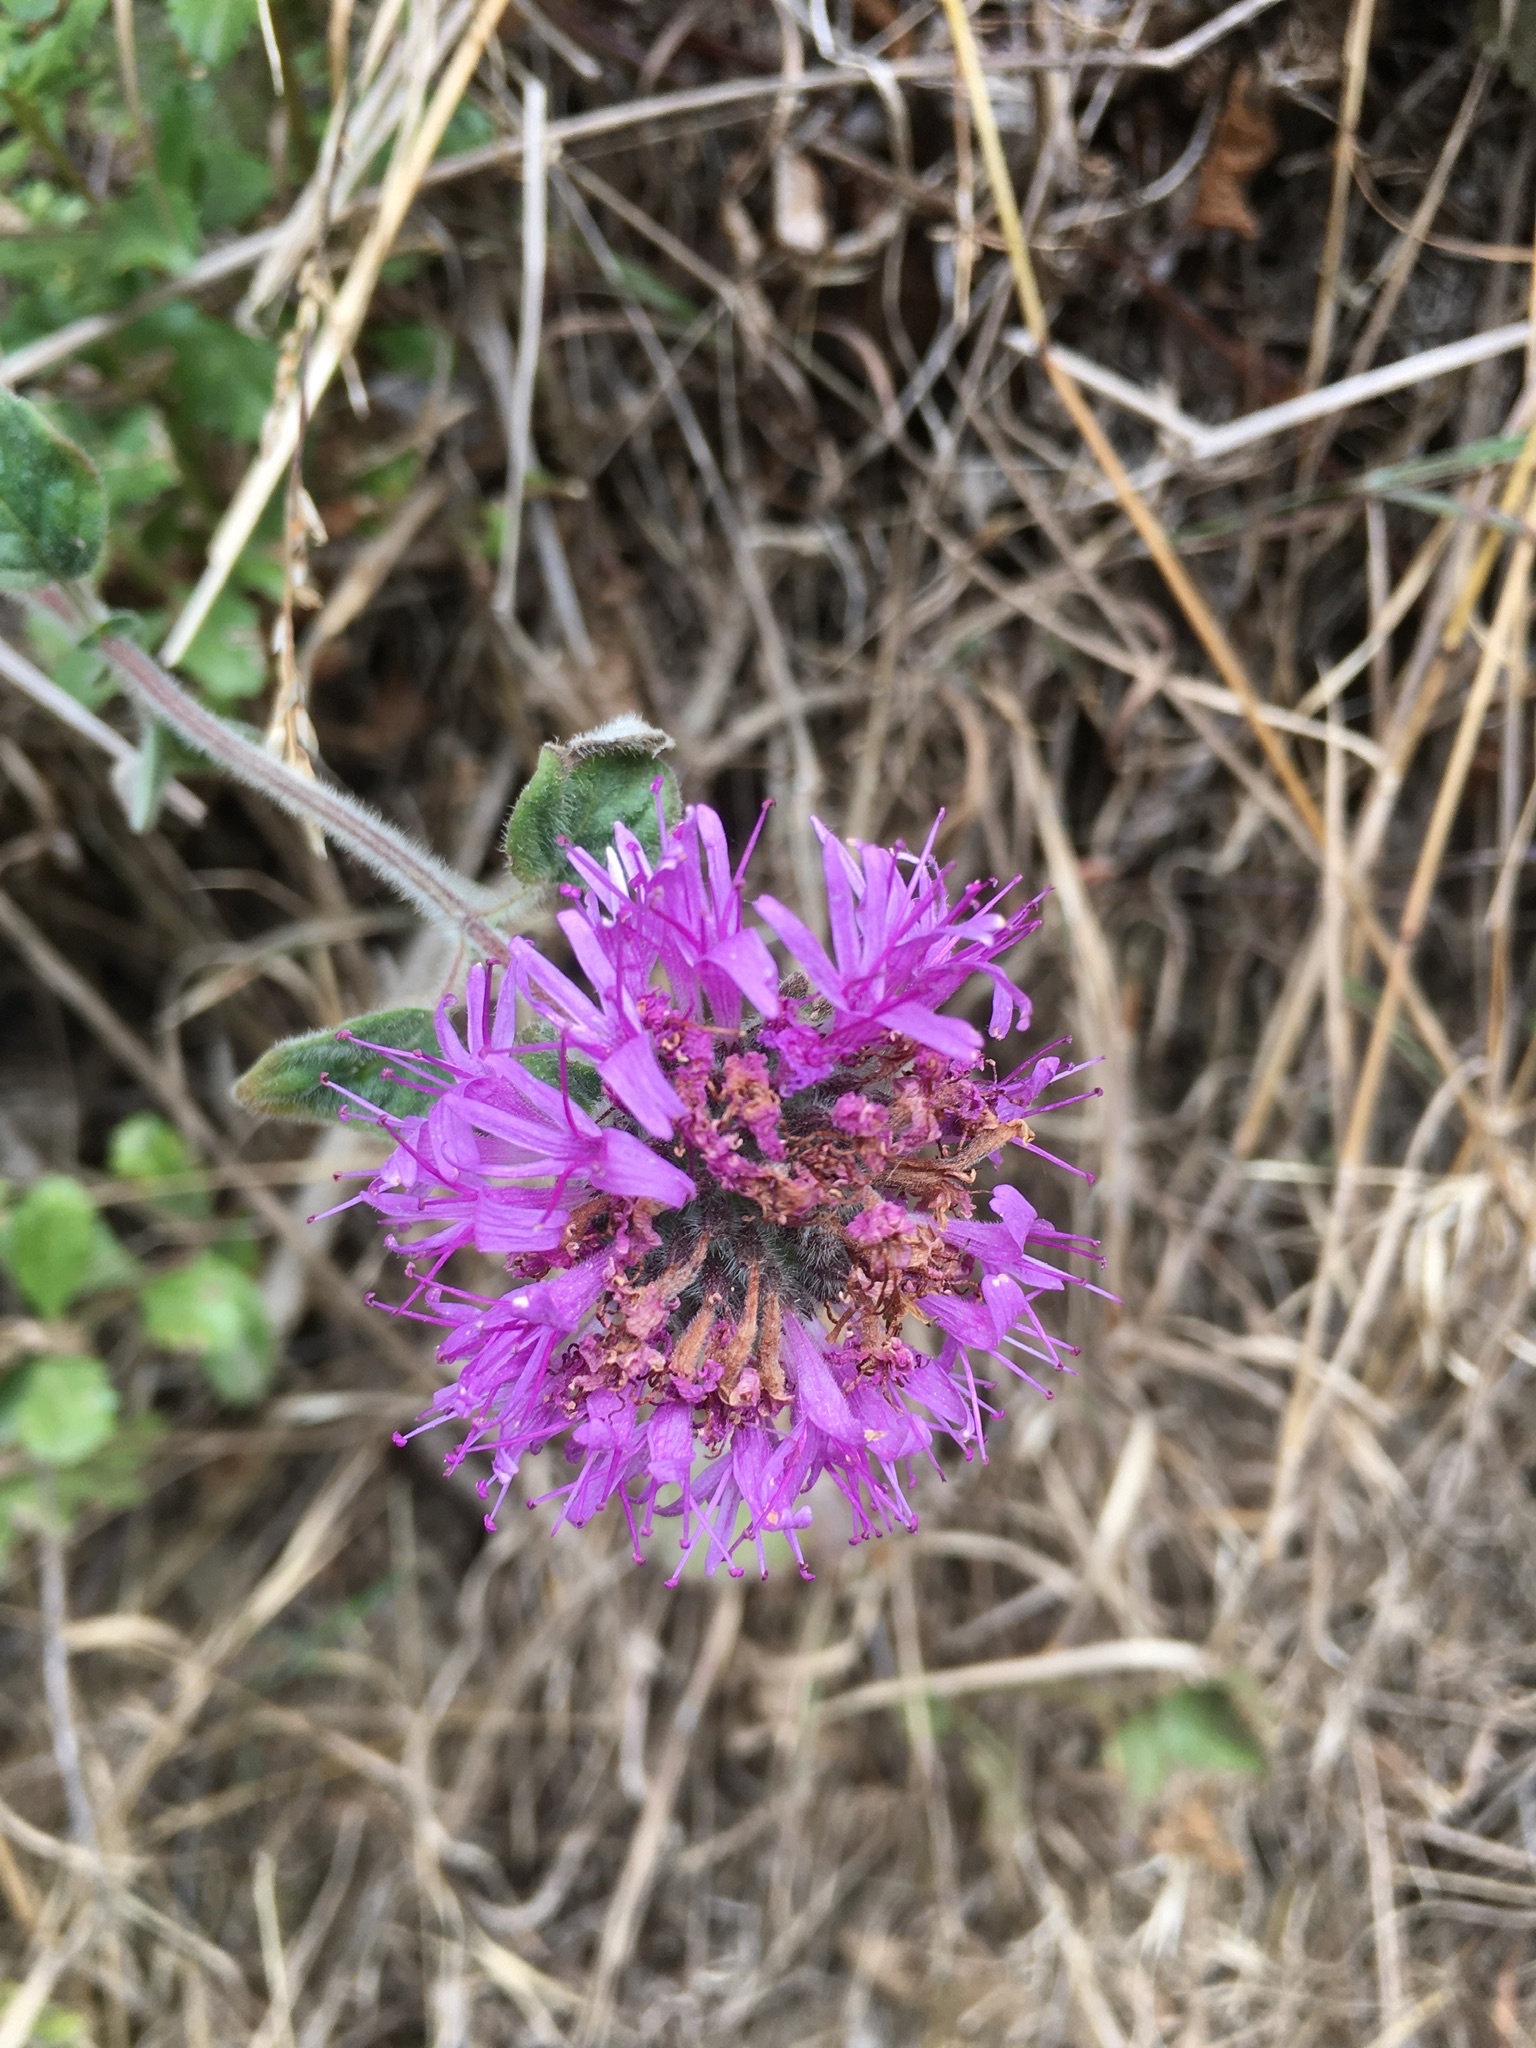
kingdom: Plantae
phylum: Tracheophyta
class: Magnoliopsida
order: Lamiales
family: Lamiaceae
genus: Monardella
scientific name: Monardella odoratissima
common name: Pacific monardella
